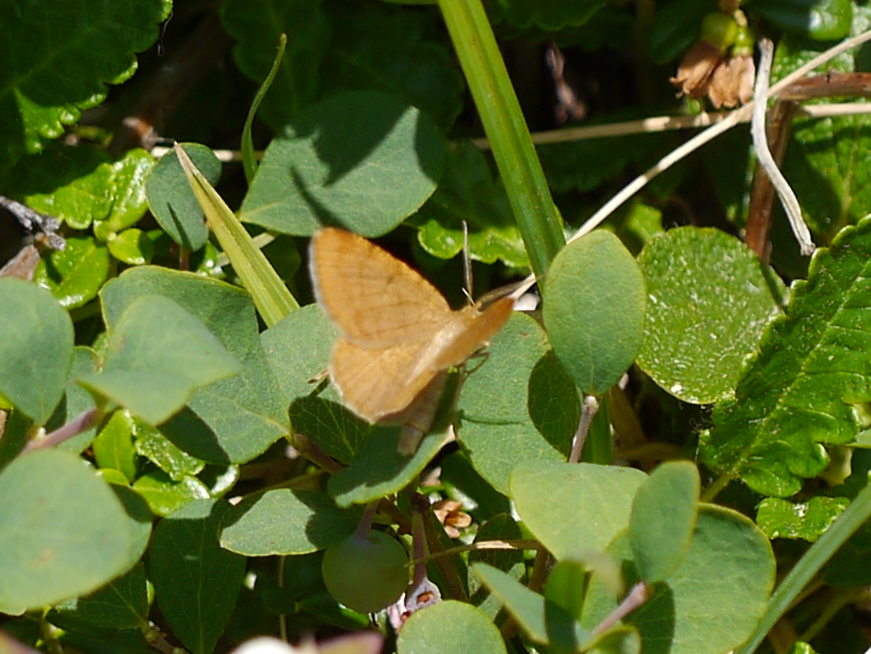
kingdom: Animalia
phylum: Arthropoda
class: Insecta
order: Lepidoptera
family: Geometridae
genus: Macaria
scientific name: Macaria brunneata
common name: Rannoch looper
